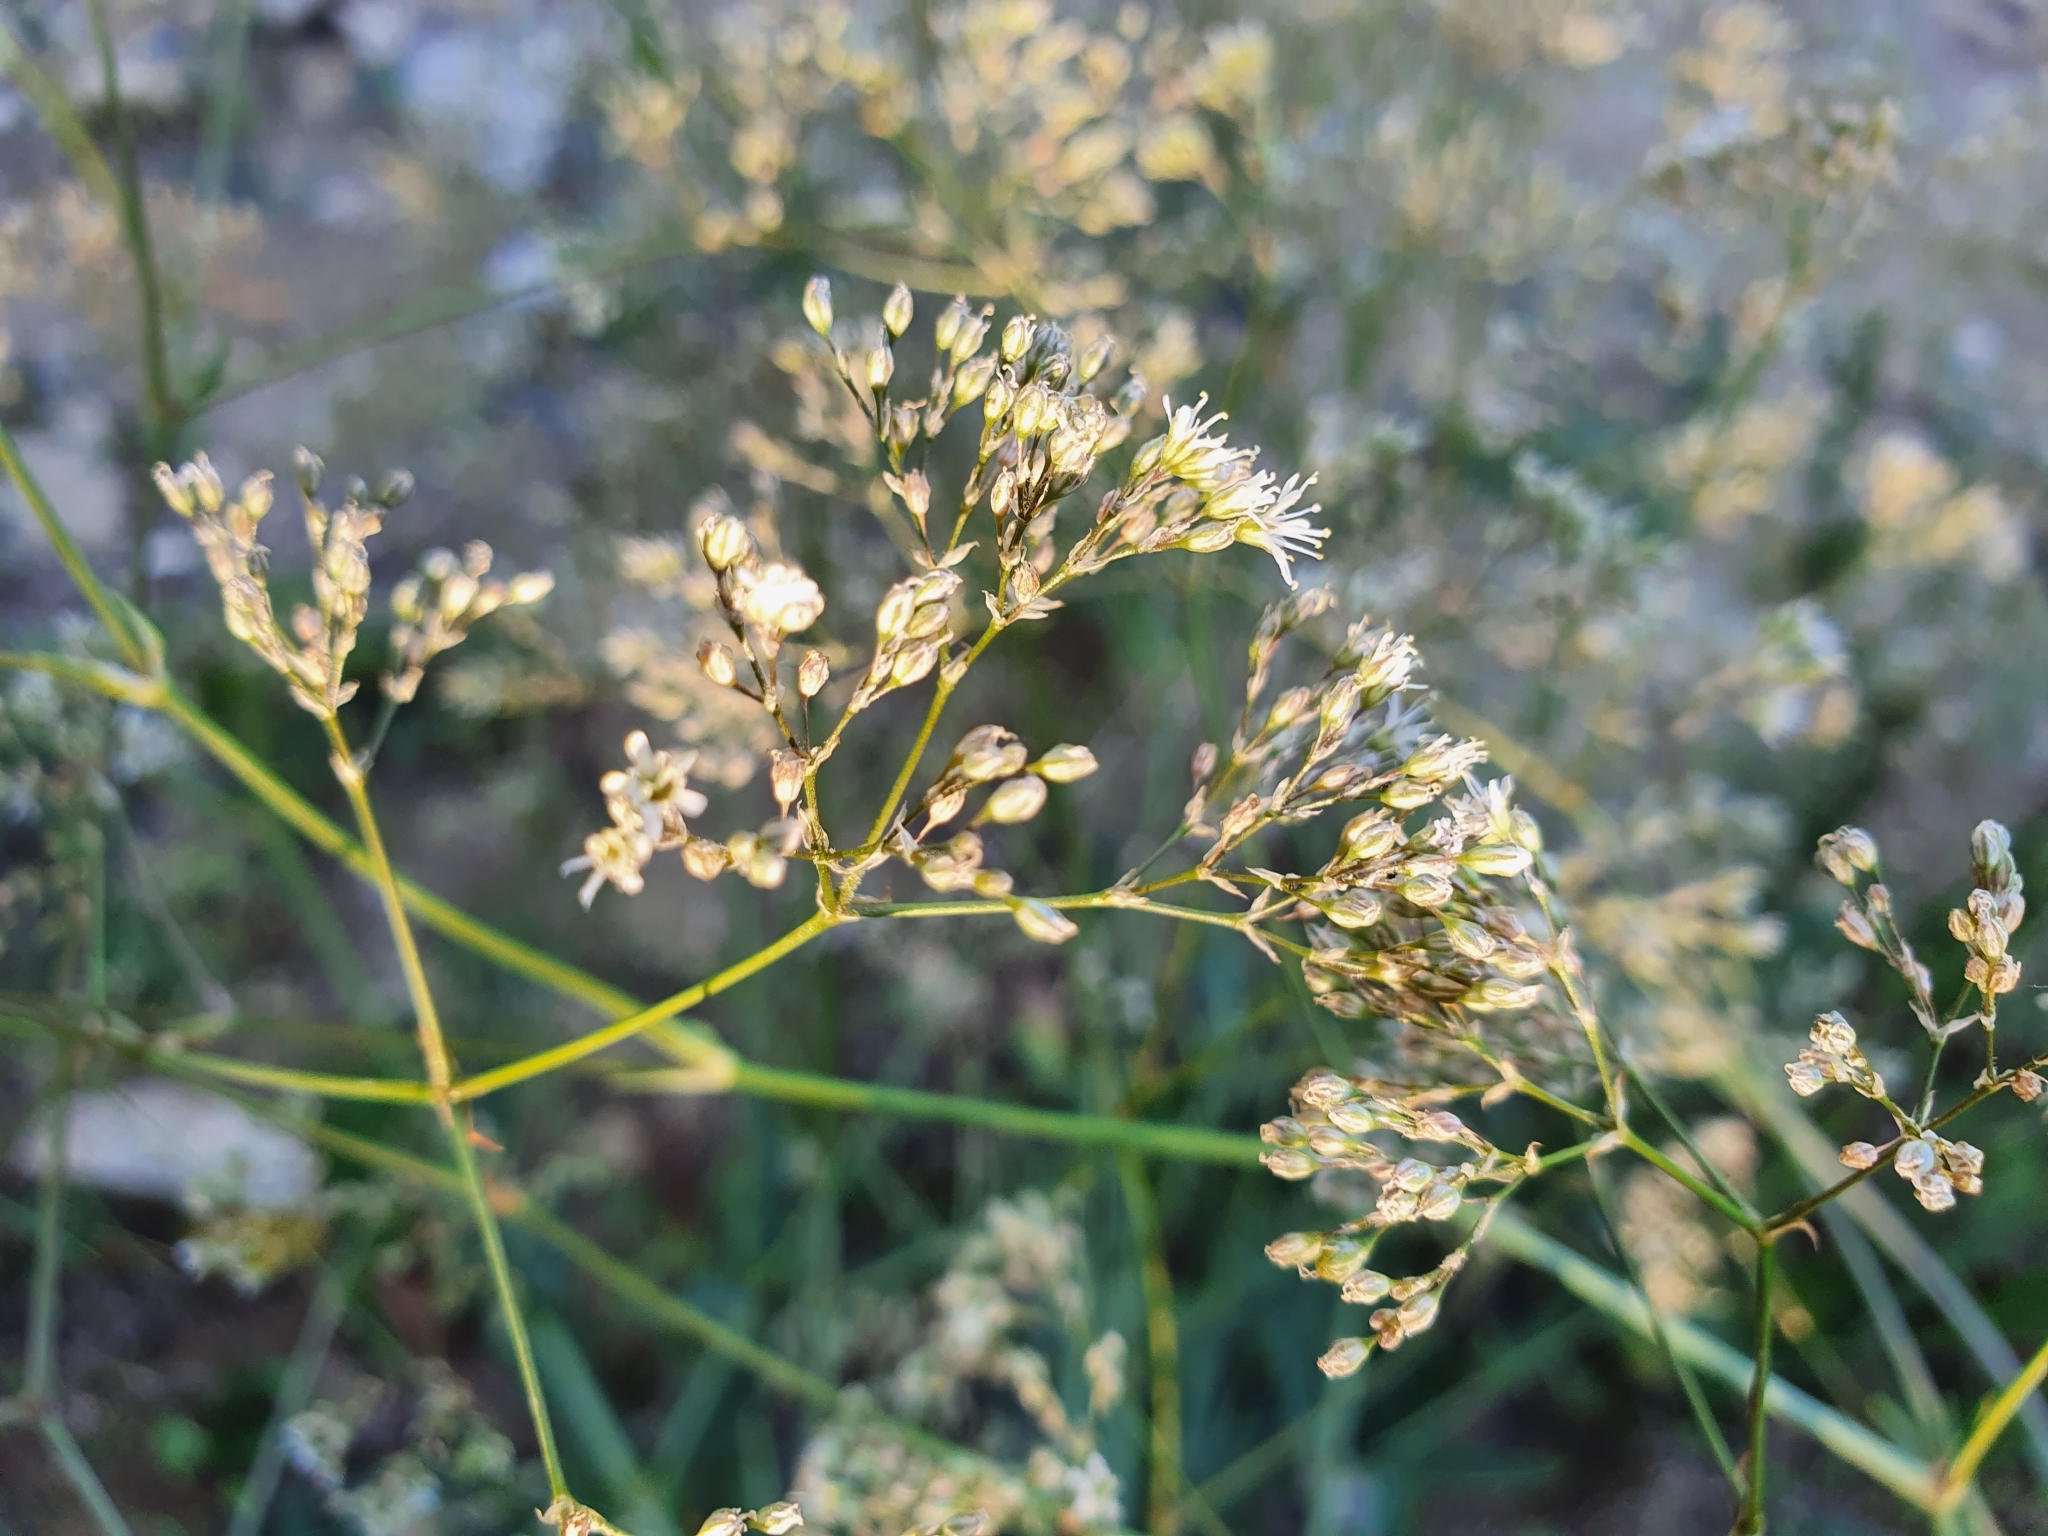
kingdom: Plantae
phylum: Tracheophyta
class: Magnoliopsida
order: Caryophyllales
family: Caryophyllaceae
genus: Gypsophila
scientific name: Gypsophila altissima
